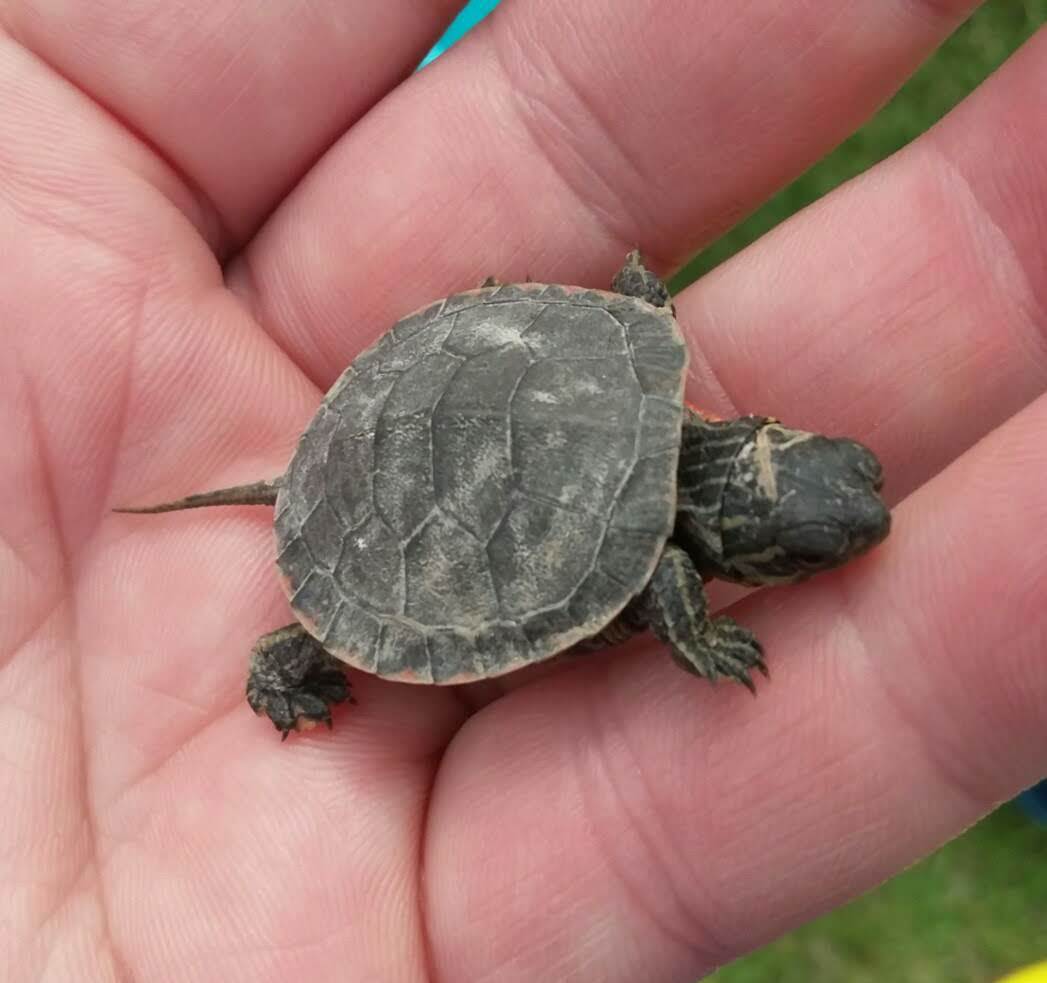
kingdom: Animalia
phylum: Chordata
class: Testudines
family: Emydidae
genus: Chrysemys
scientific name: Chrysemys picta
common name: Painted turtle
